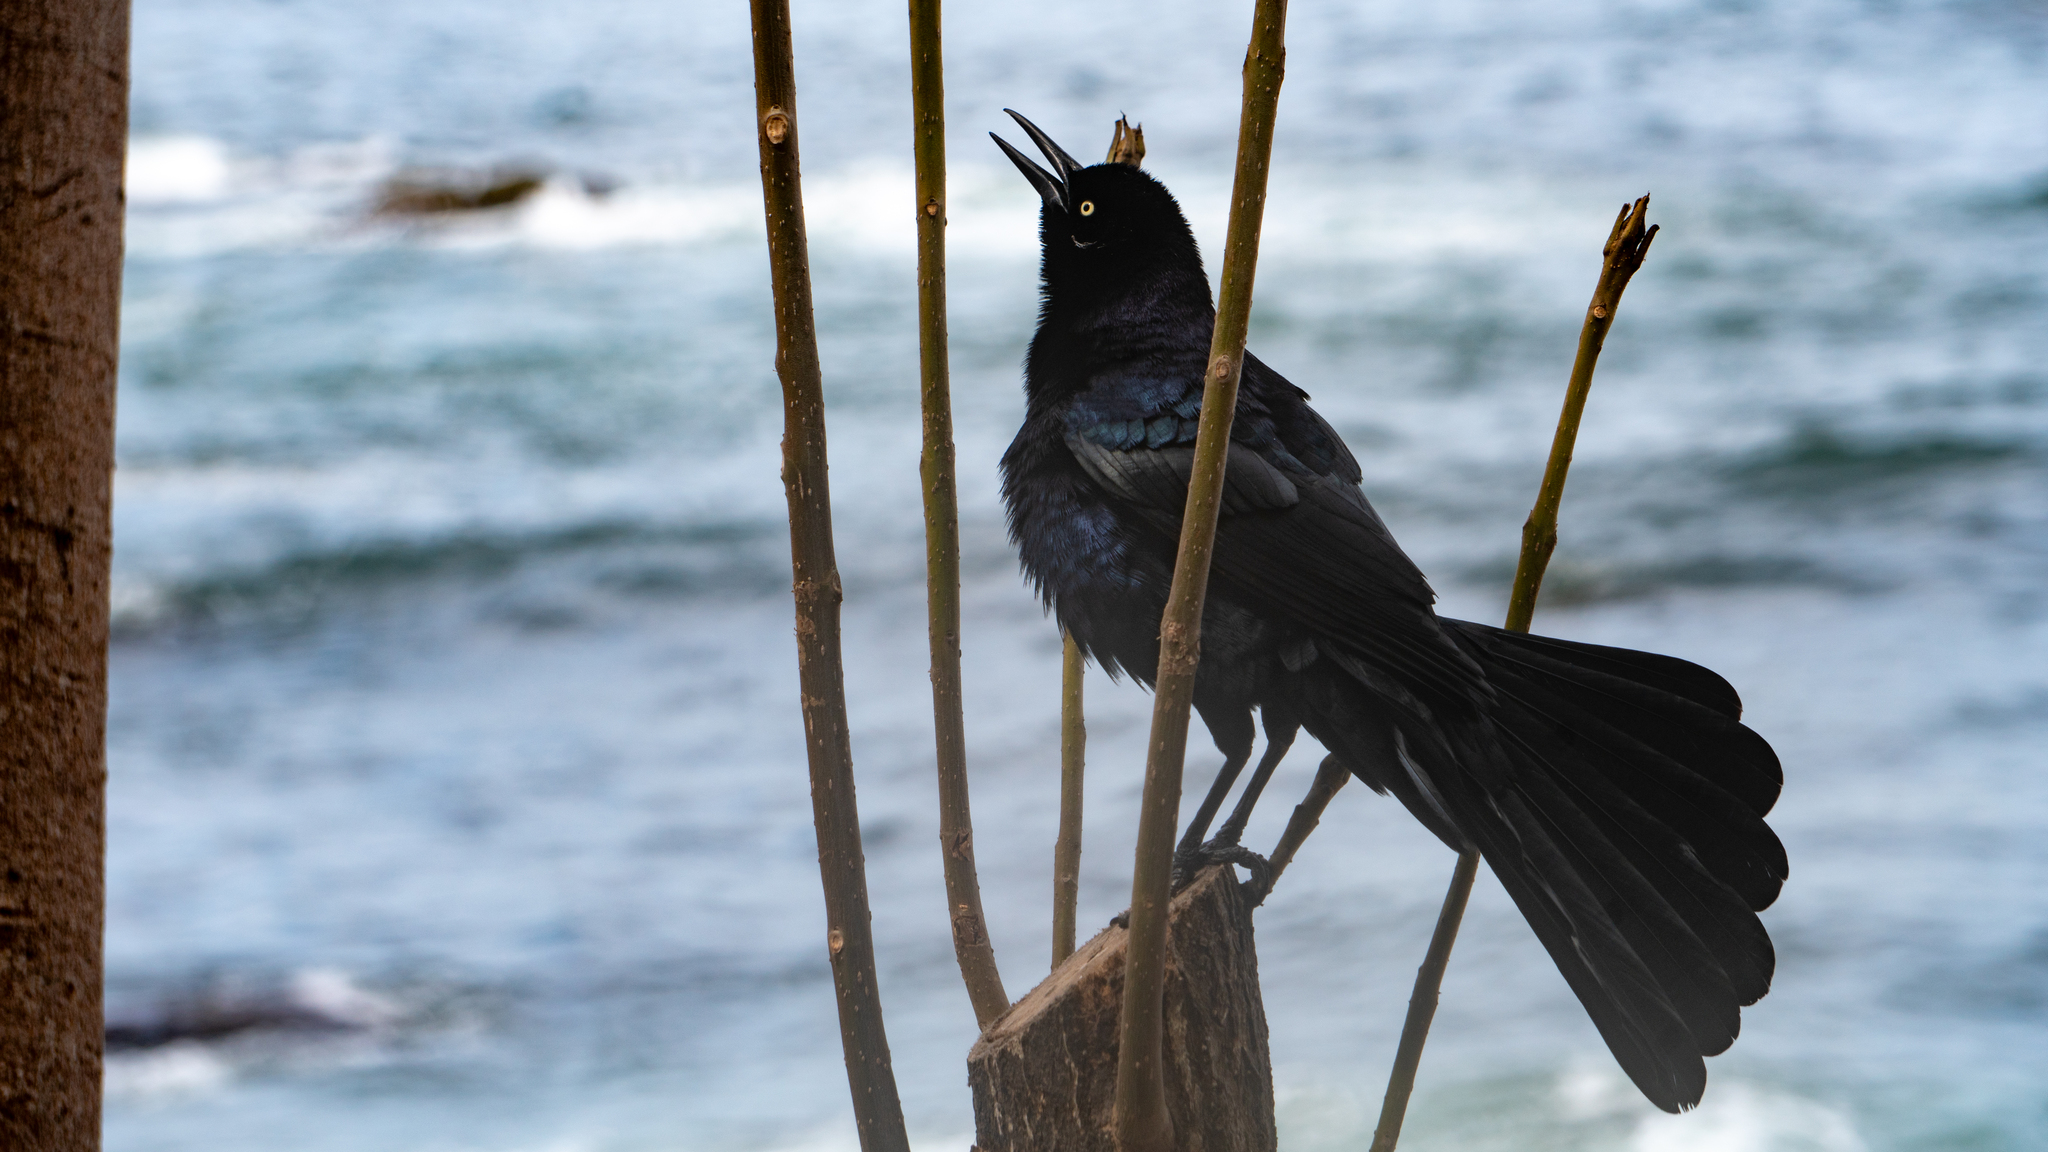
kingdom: Animalia
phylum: Chordata
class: Aves
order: Passeriformes
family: Icteridae
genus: Quiscalus
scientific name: Quiscalus mexicanus
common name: Great-tailed grackle
